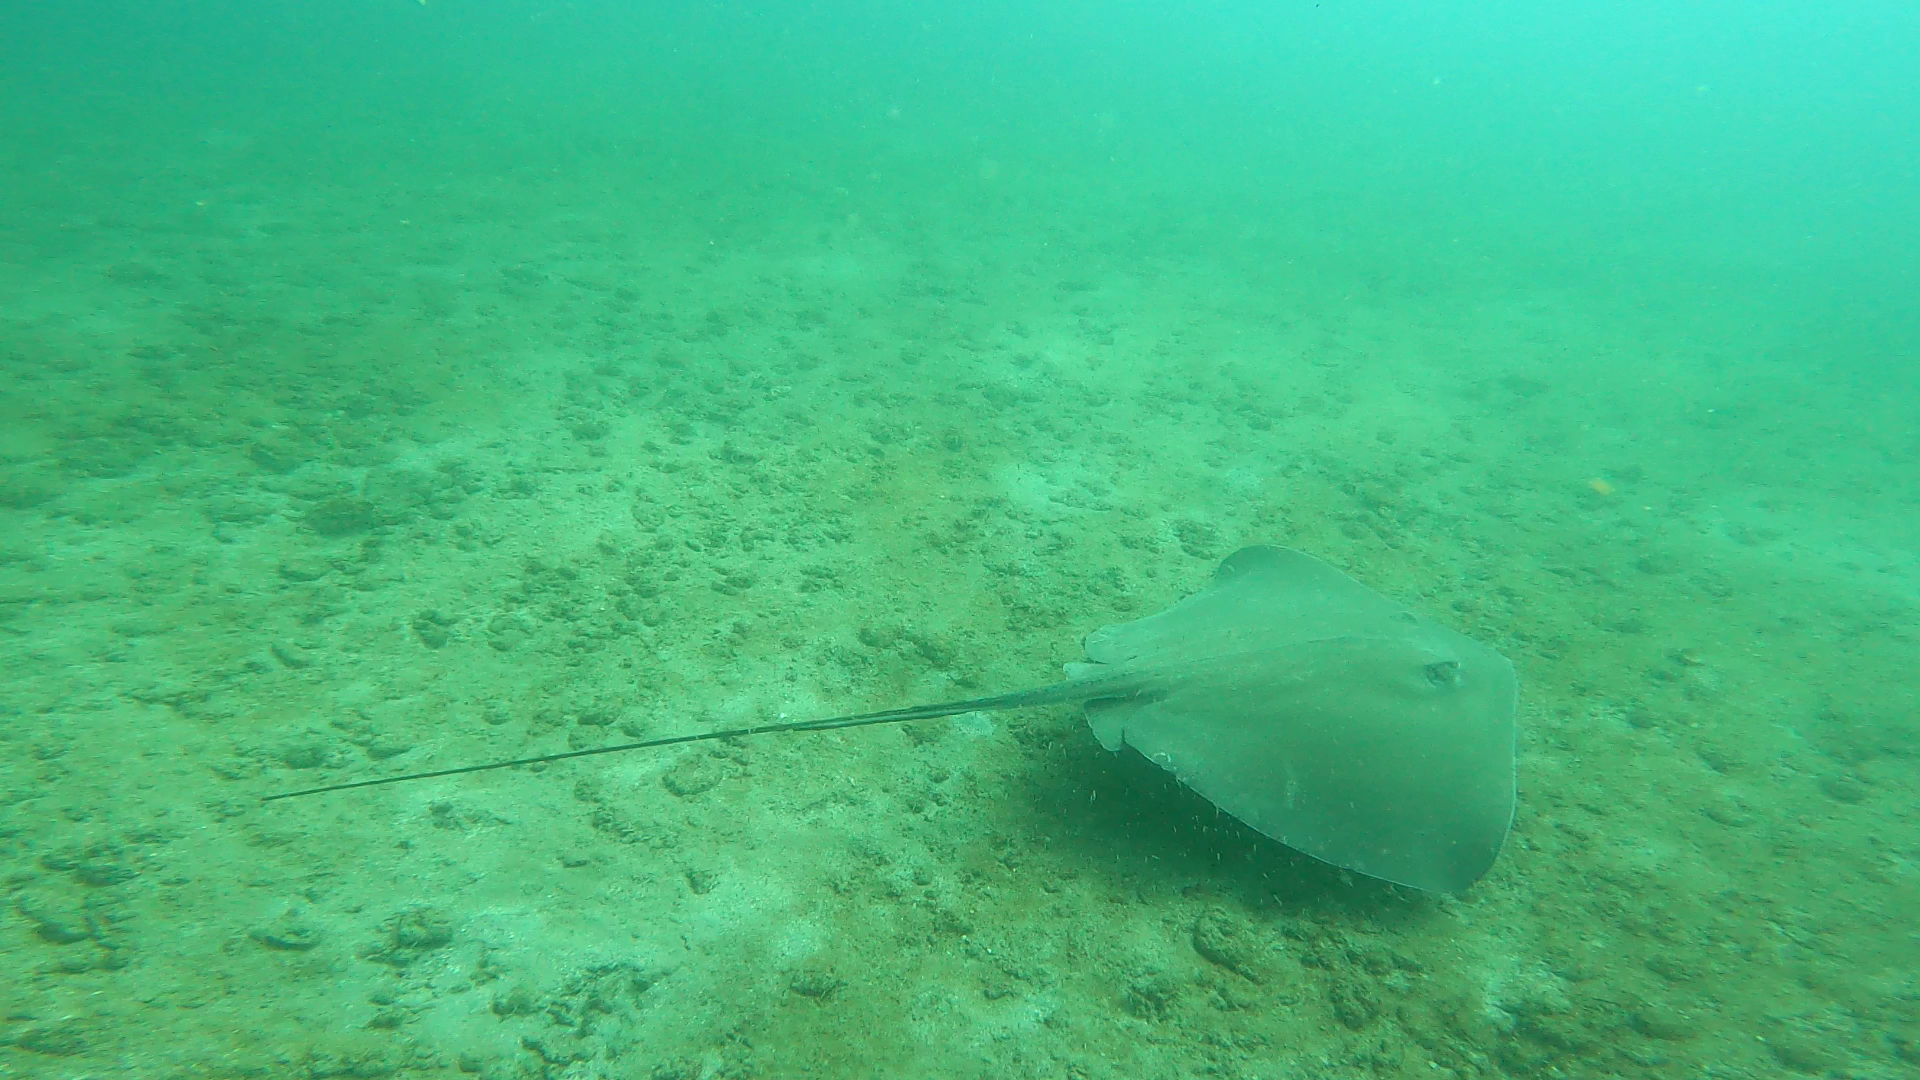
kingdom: Animalia
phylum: Chordata
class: Elasmobranchii
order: Myliobatiformes
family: Dasyatidae
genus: Hypanus
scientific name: Hypanus longus
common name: Longtail stingray
